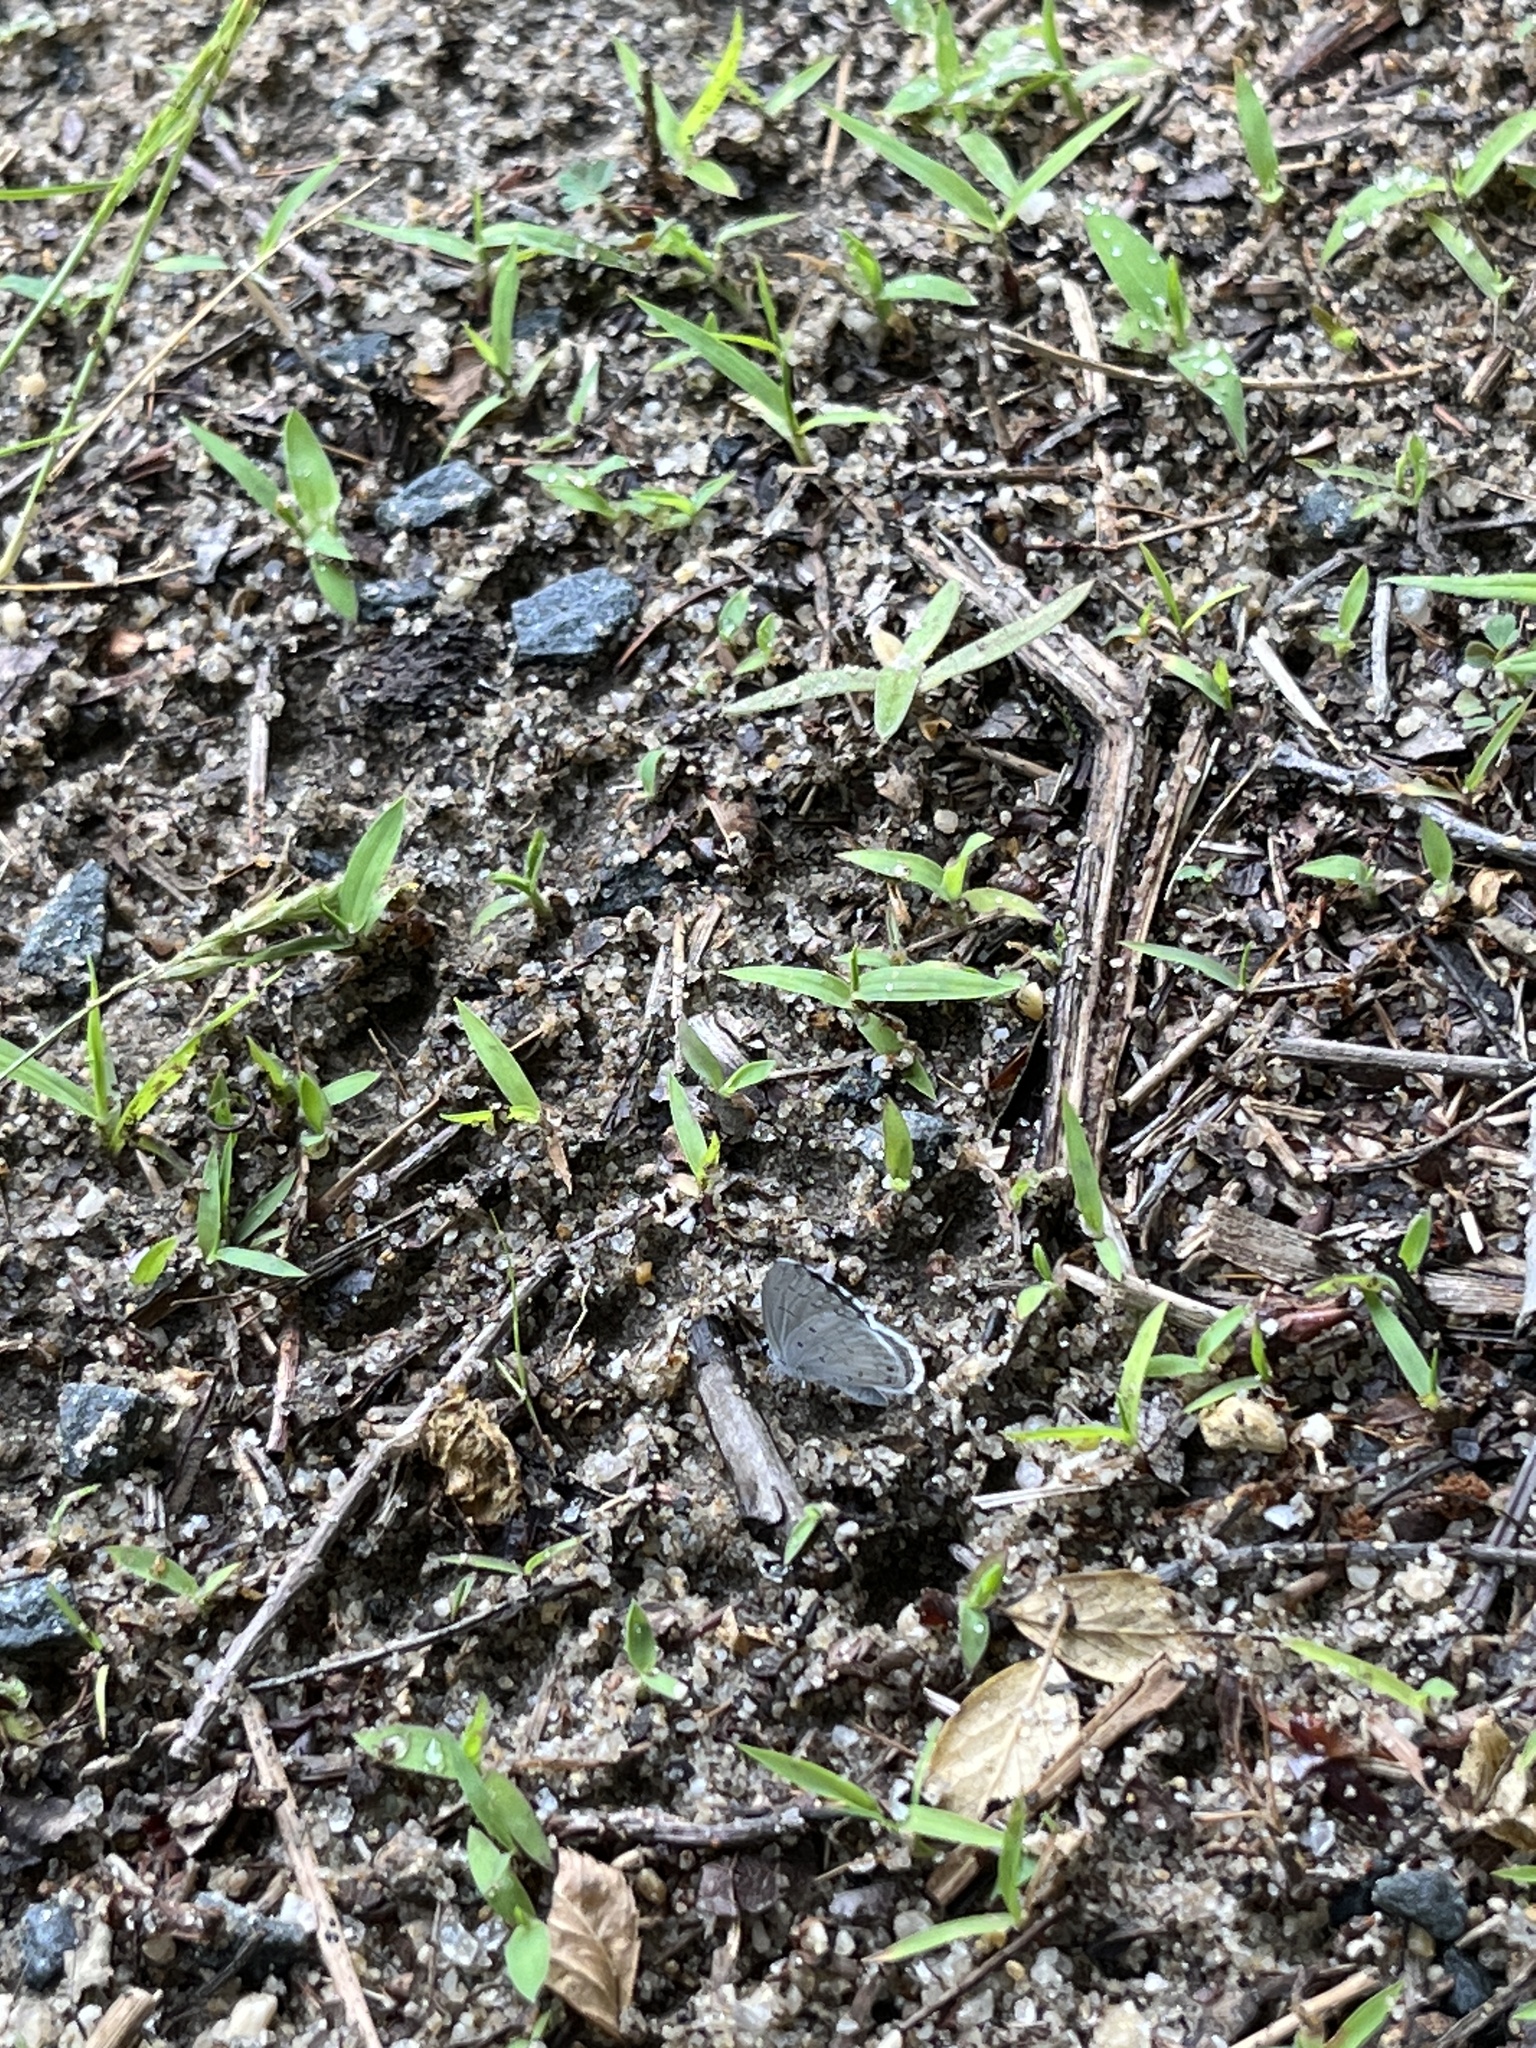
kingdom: Animalia
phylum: Arthropoda
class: Insecta
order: Lepidoptera
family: Lycaenidae
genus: Cyaniris
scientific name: Cyaniris neglecta
